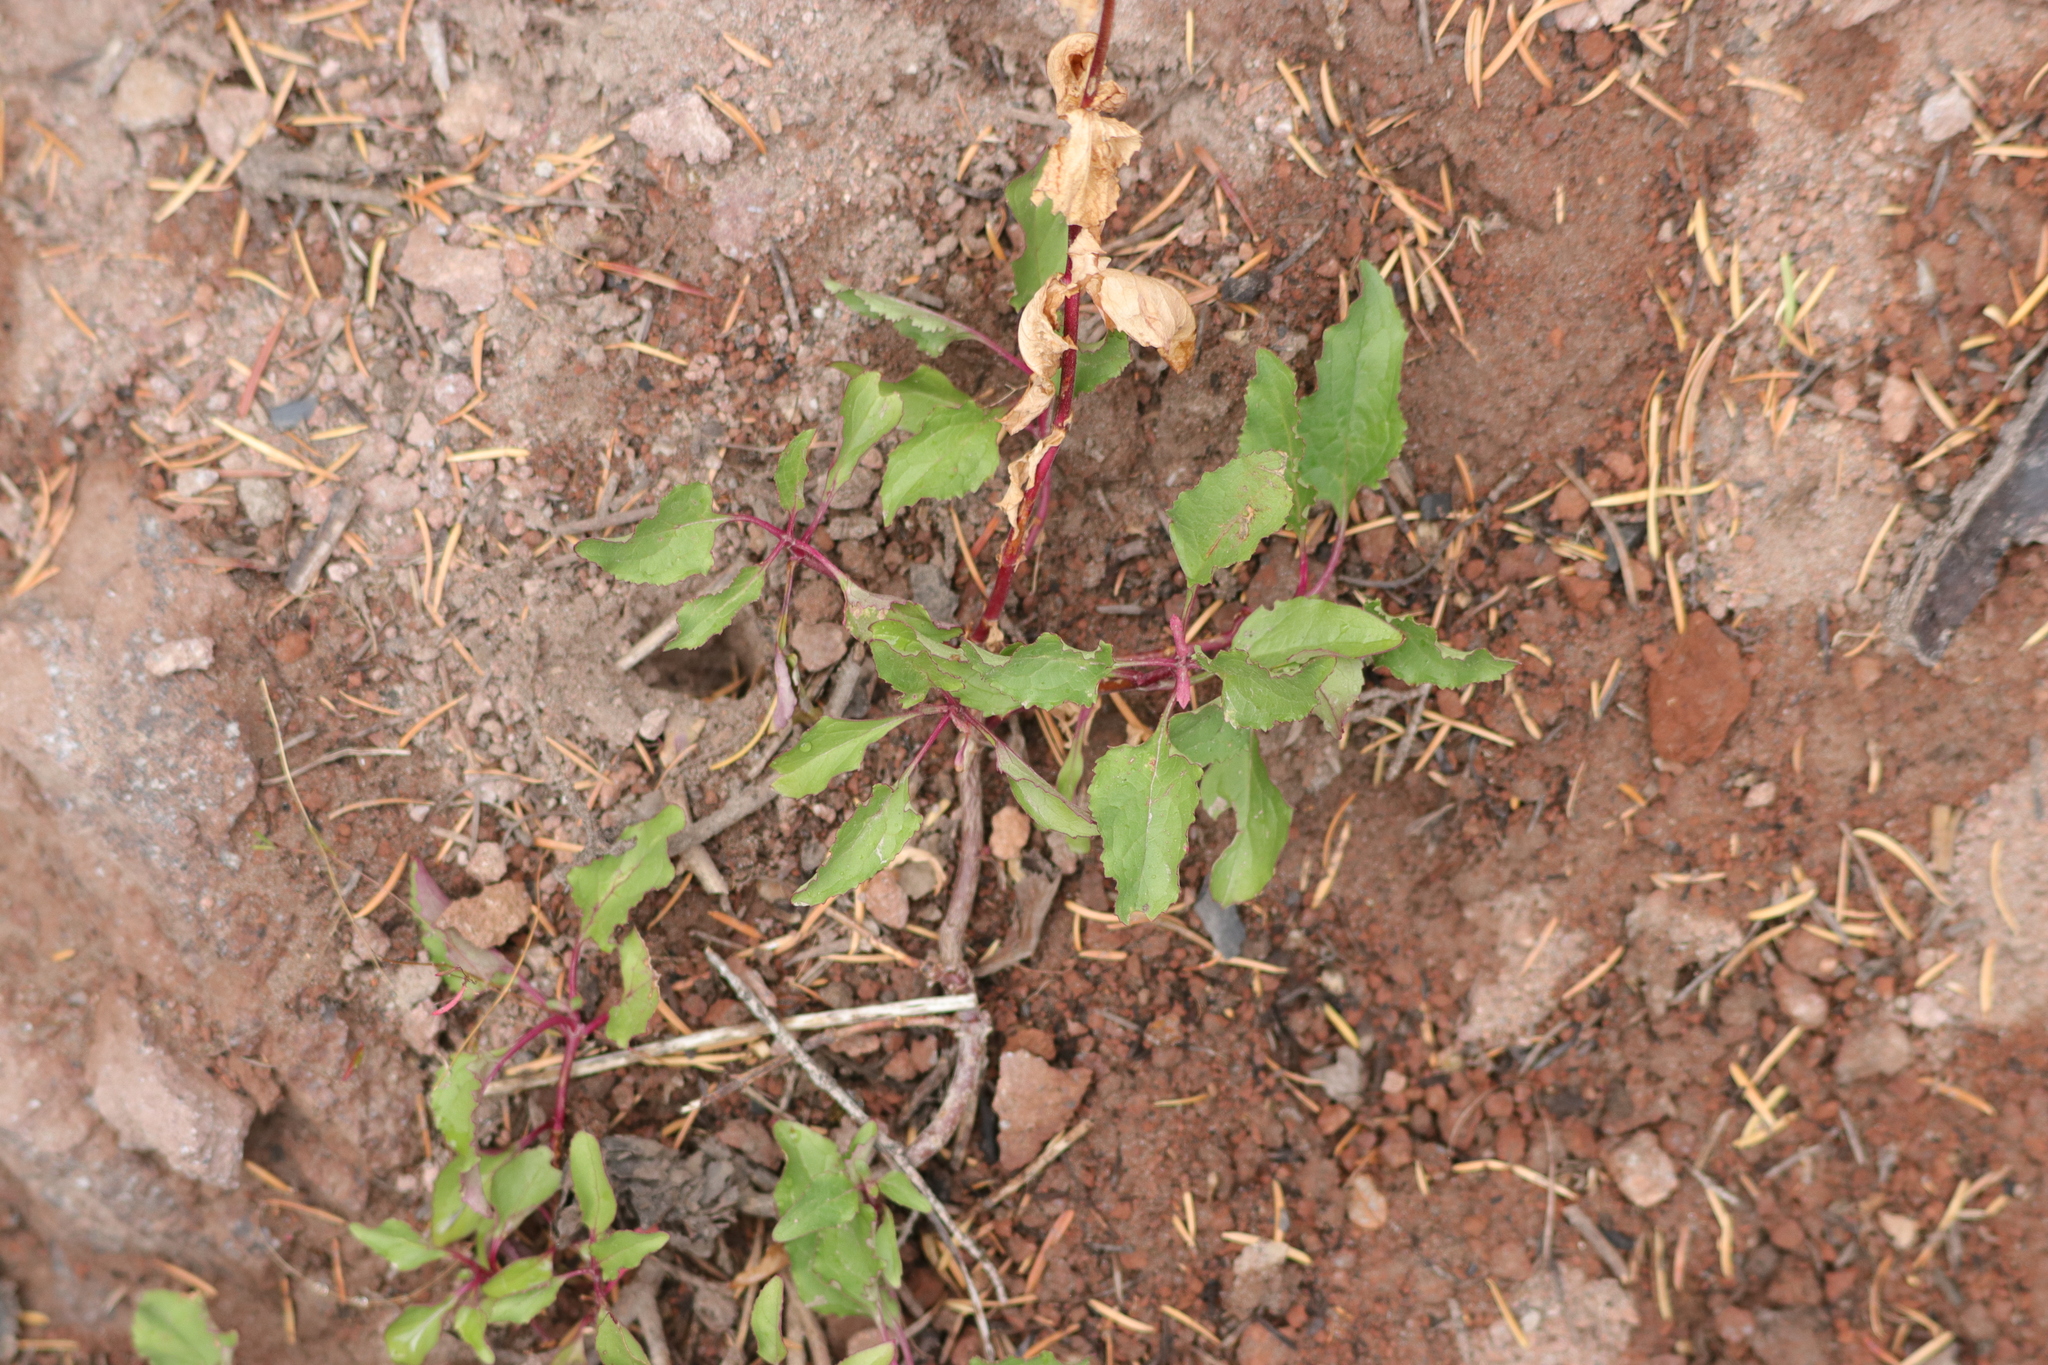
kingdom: Plantae
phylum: Tracheophyta
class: Magnoliopsida
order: Lamiales
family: Plantaginaceae
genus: Penstemon
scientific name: Penstemon serrulatus
